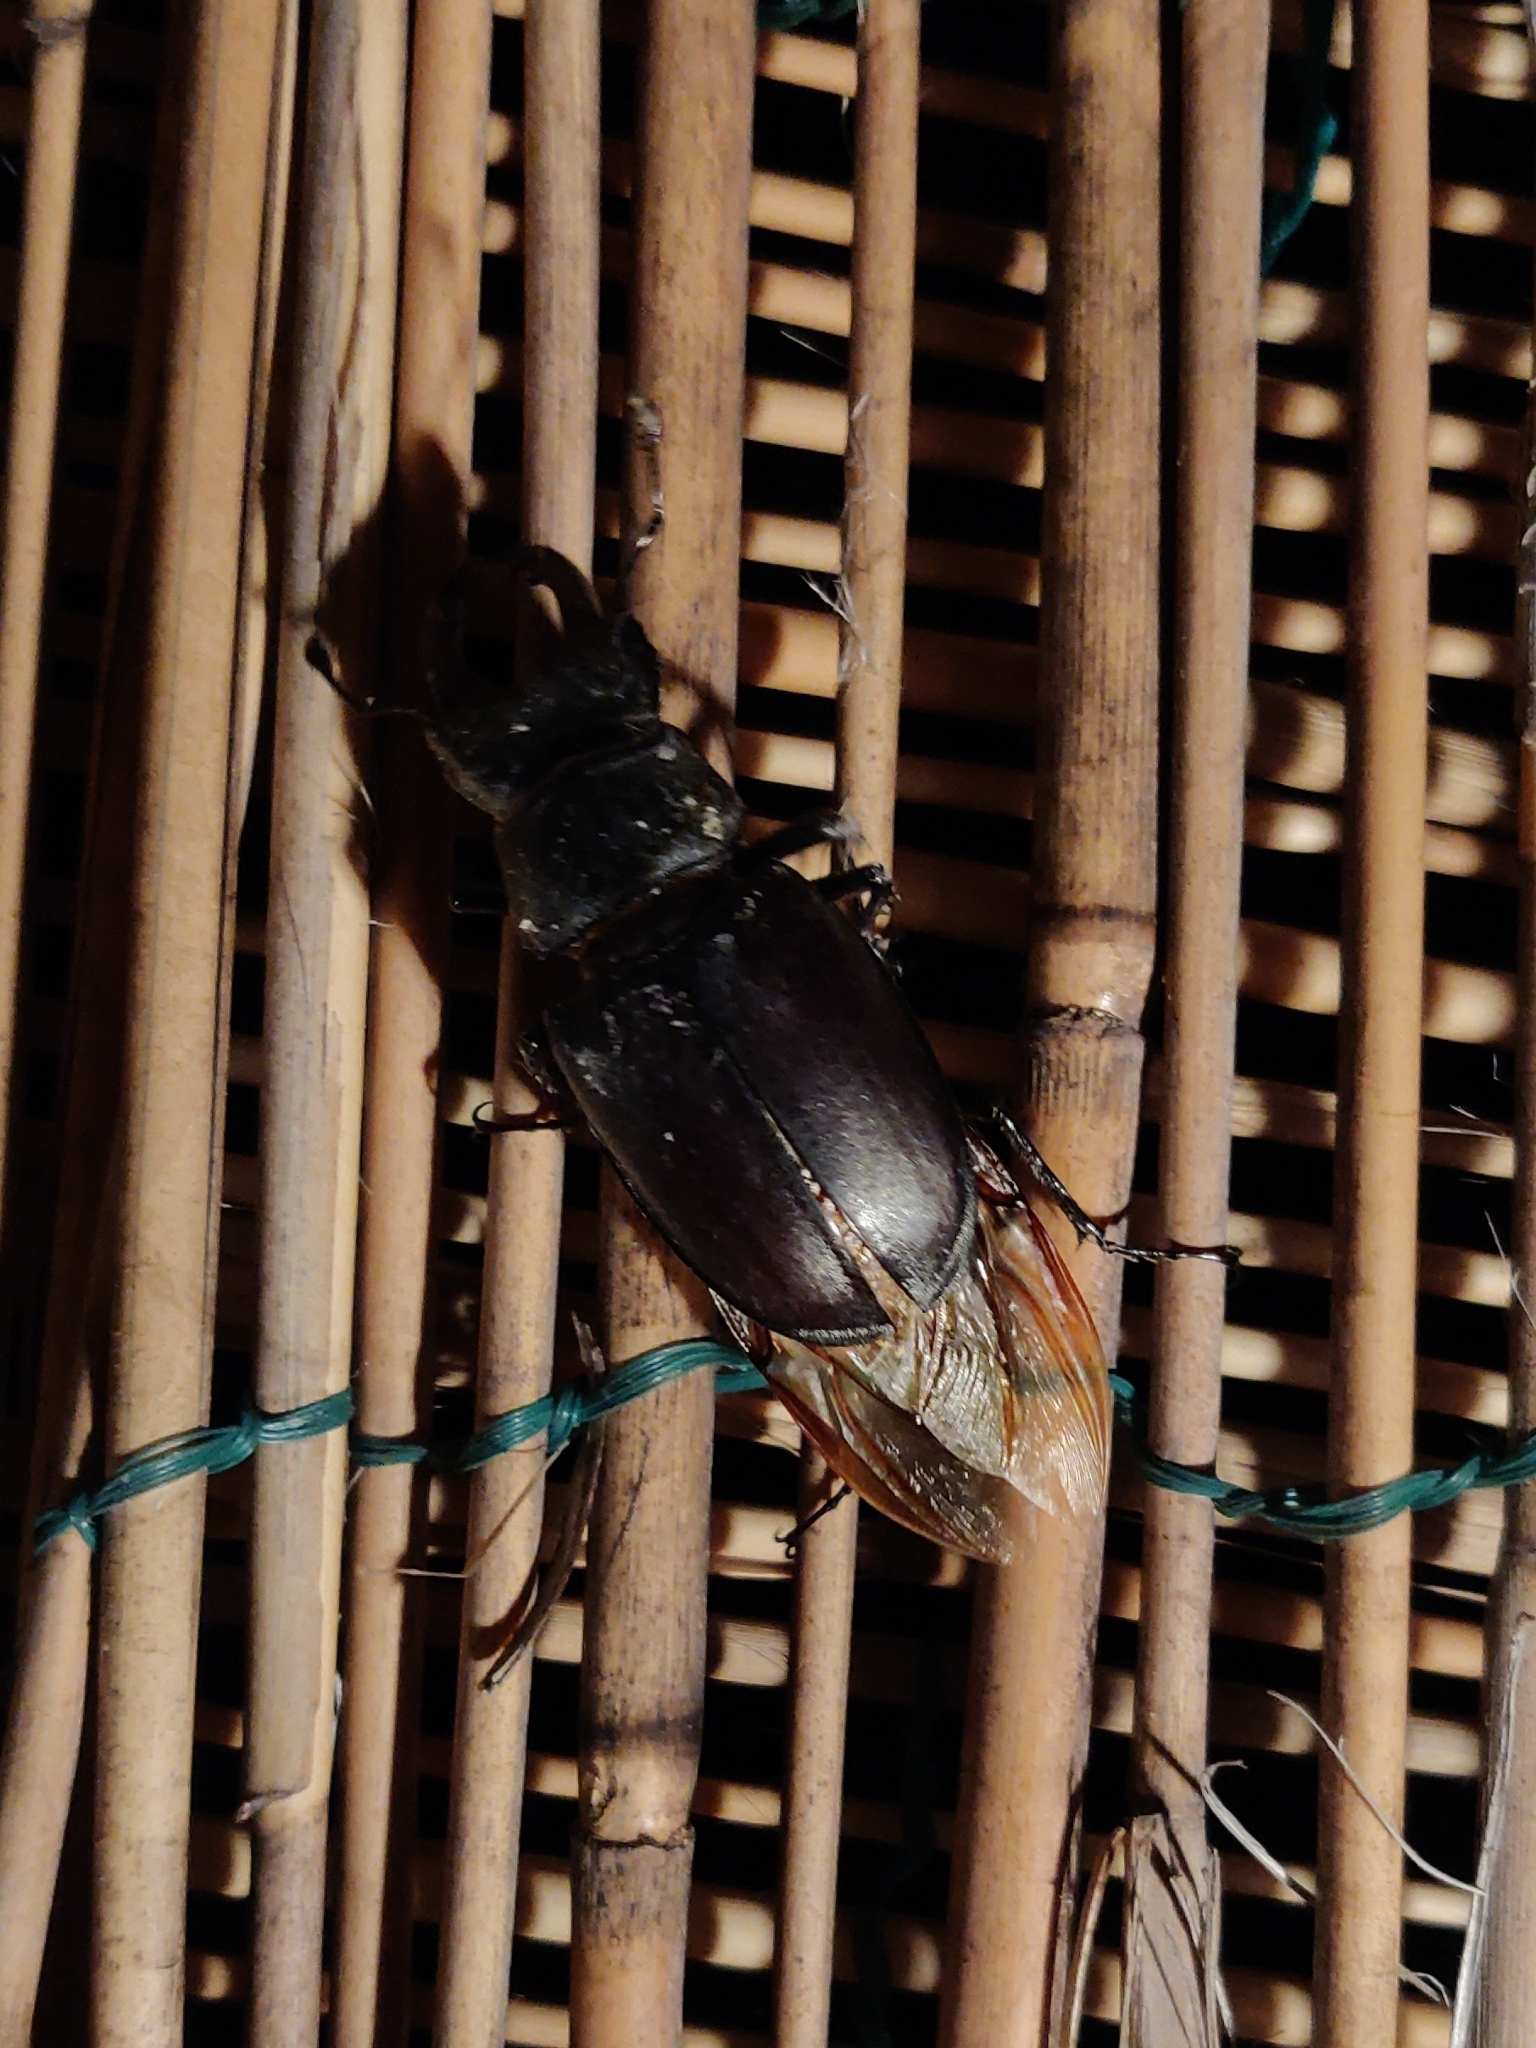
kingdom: Animalia
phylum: Arthropoda
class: Insecta
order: Coleoptera
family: Lucanidae
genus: Lucanus
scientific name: Lucanus cervus
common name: Stag beetle
